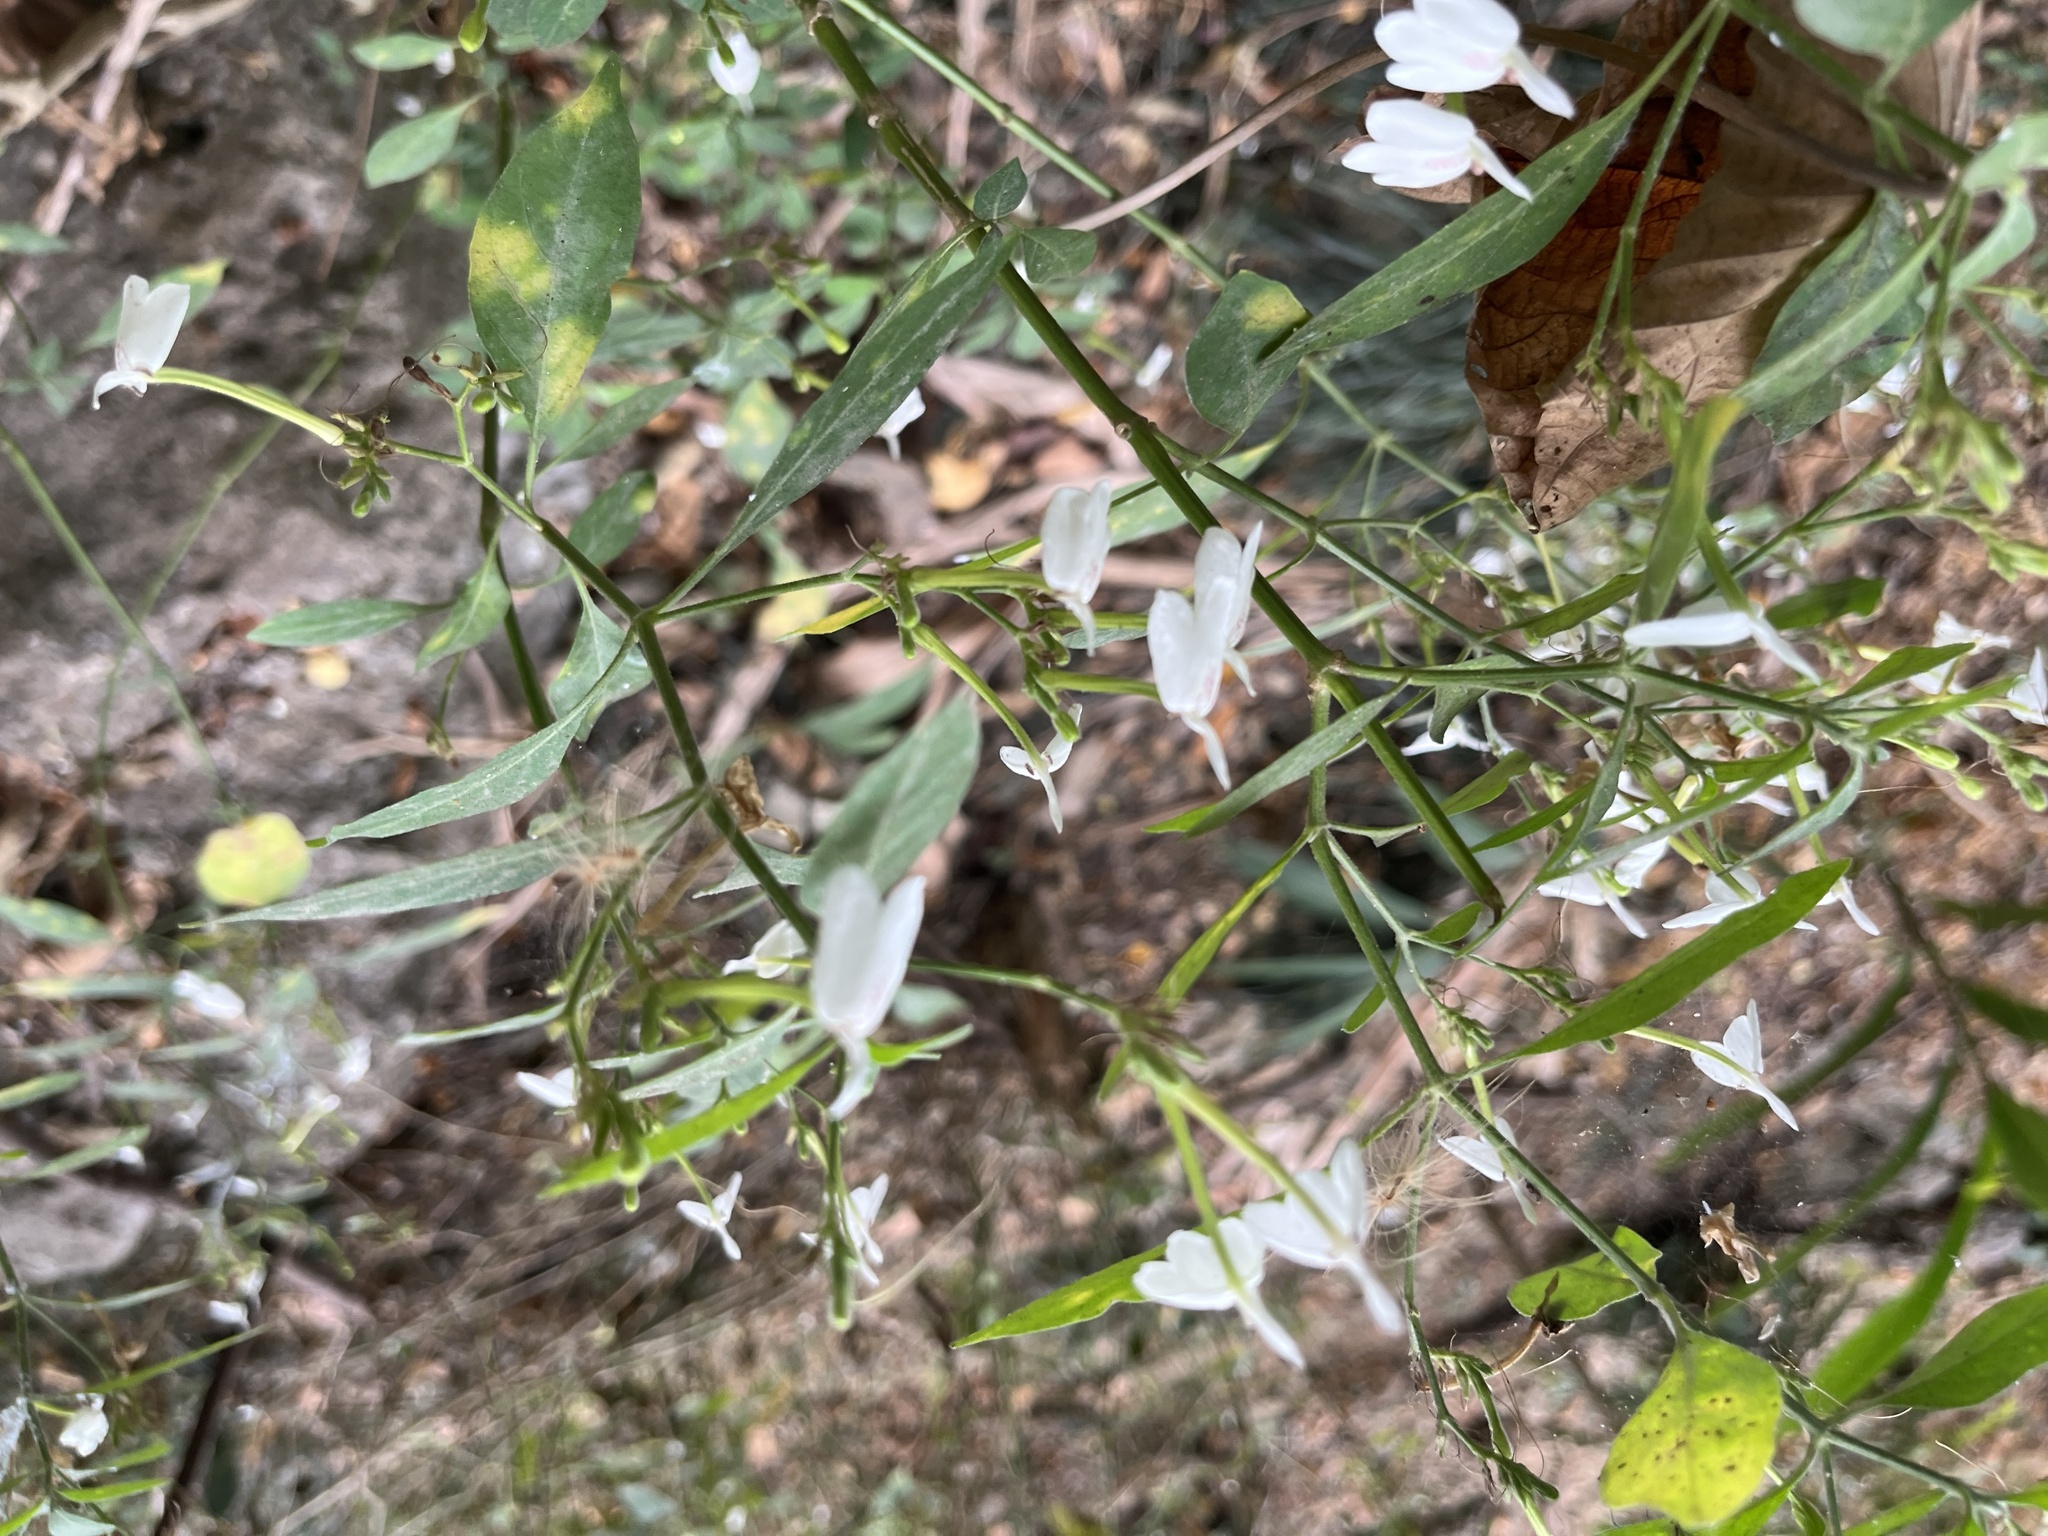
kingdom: Plantae
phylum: Tracheophyta
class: Magnoliopsida
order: Lamiales
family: Acanthaceae
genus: Rhinacanthus
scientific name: Rhinacanthus nasutus
